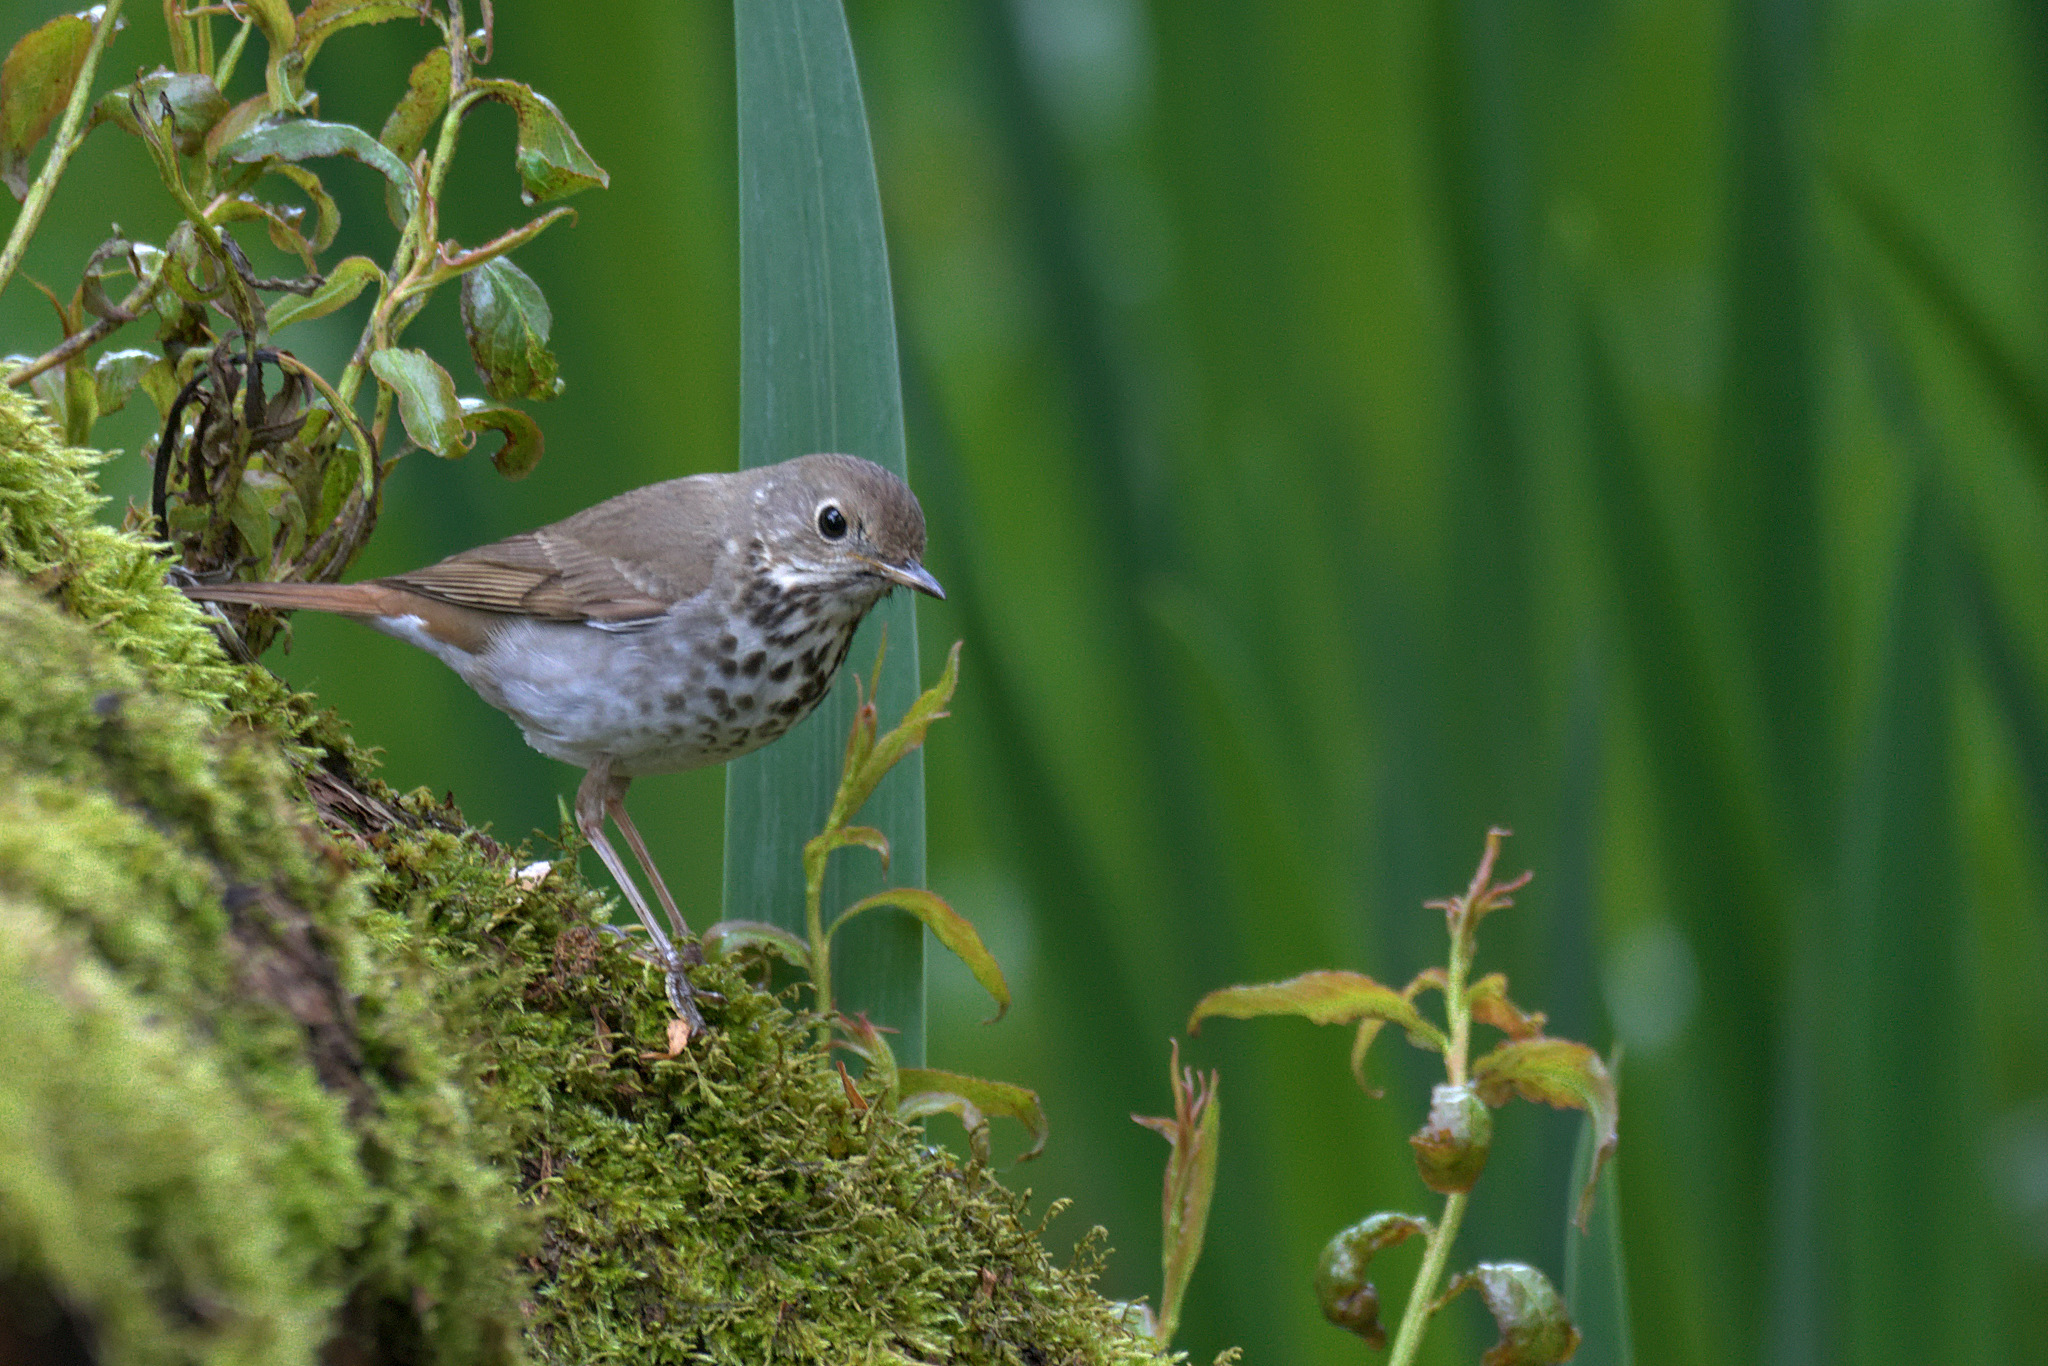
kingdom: Animalia
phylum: Chordata
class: Aves
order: Passeriformes
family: Turdidae
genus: Catharus
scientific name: Catharus guttatus
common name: Hermit thrush
